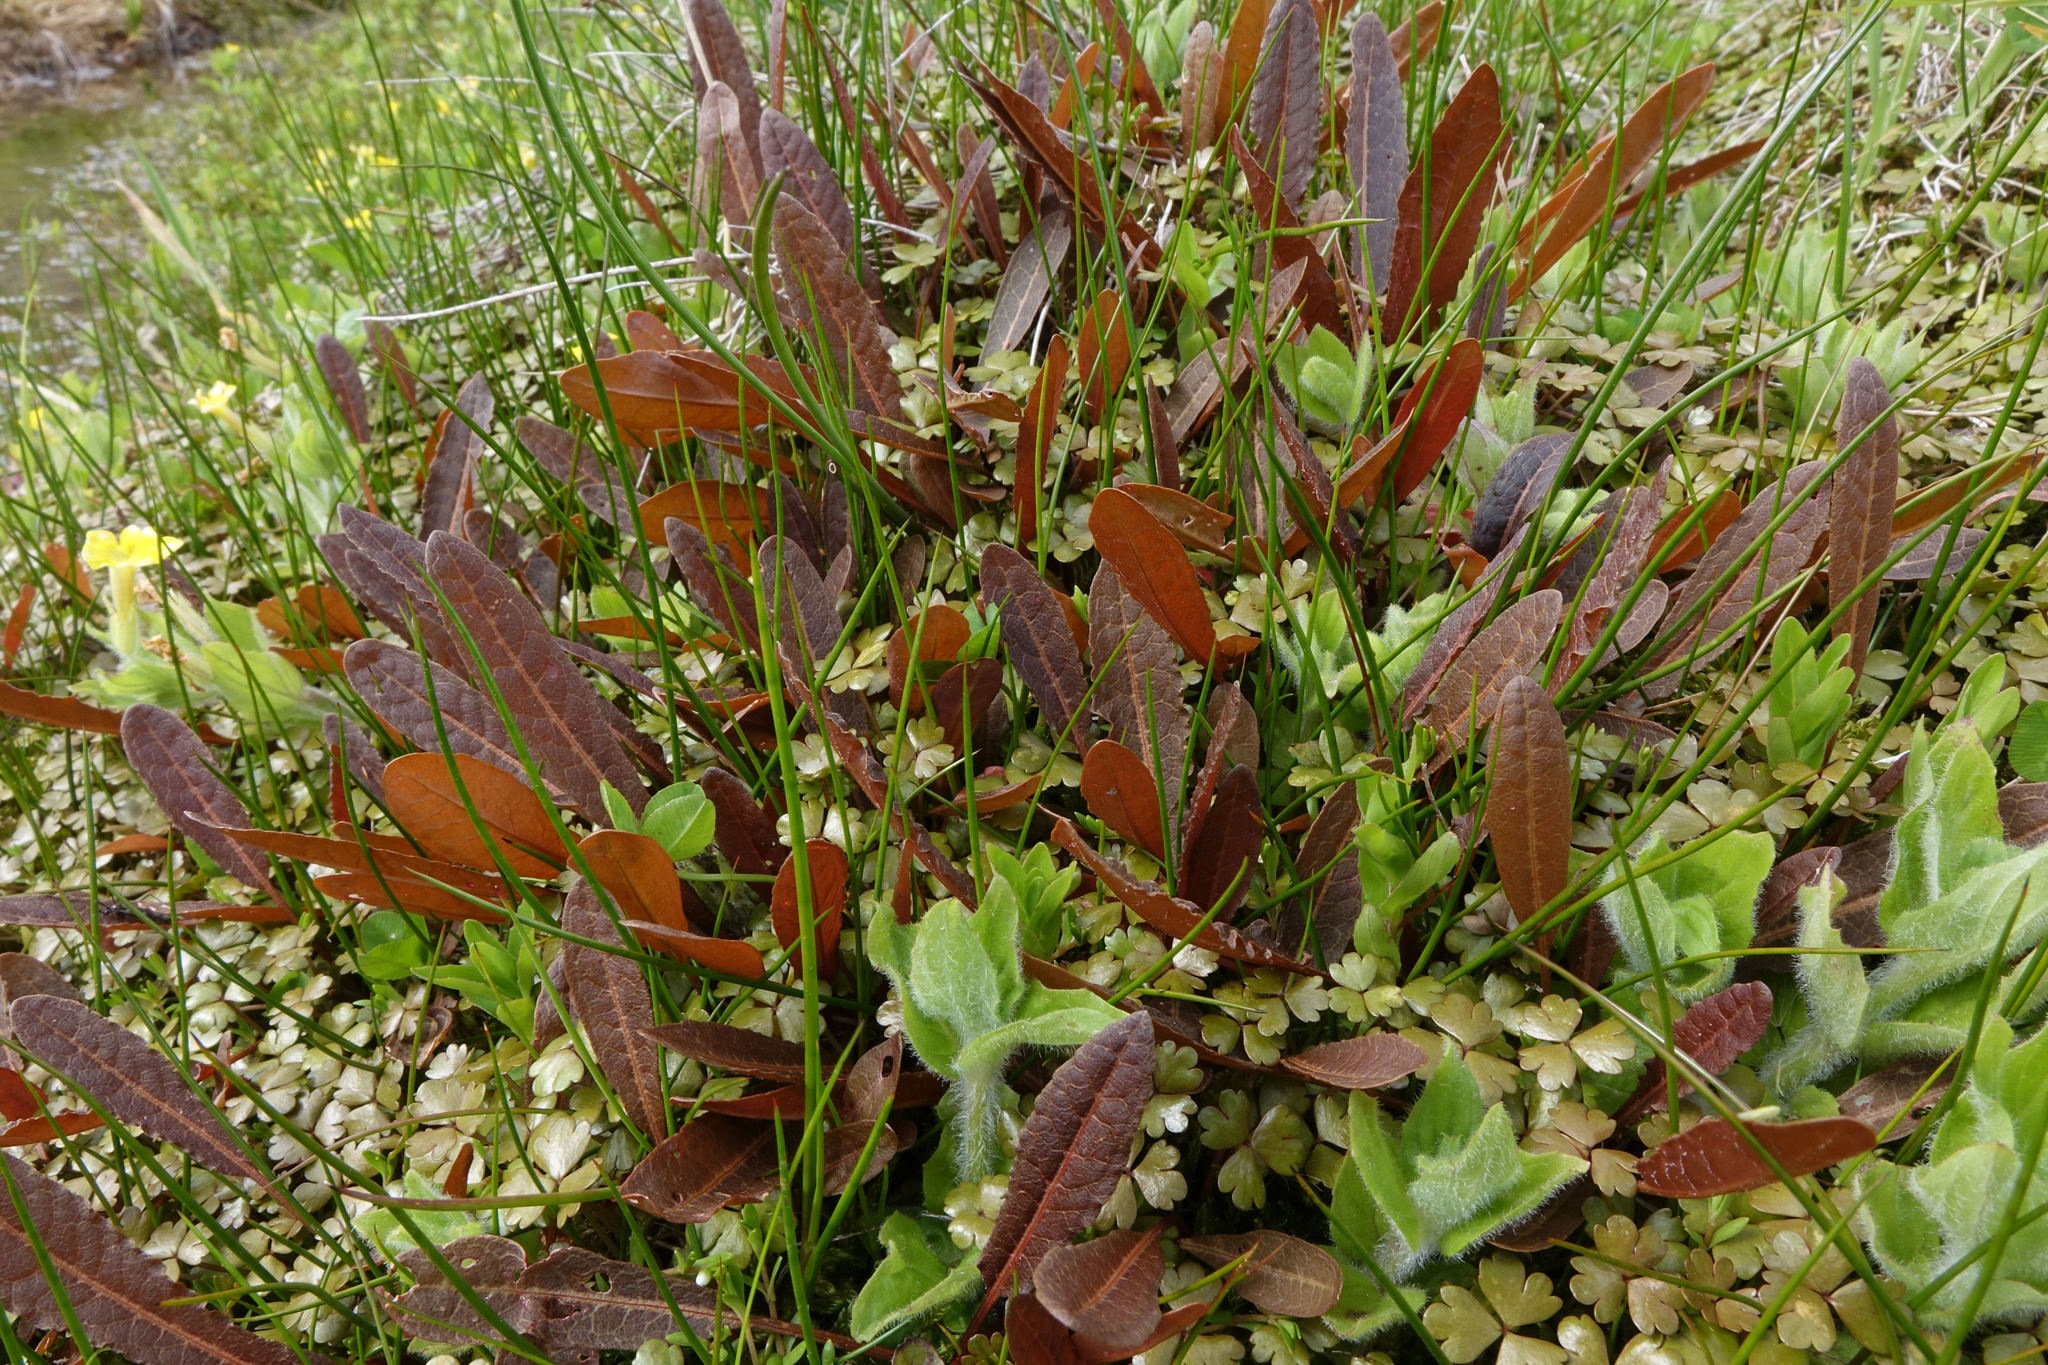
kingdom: Plantae
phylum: Tracheophyta
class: Magnoliopsida
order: Caryophyllales
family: Polygonaceae
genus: Rumex
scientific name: Rumex flexuosus
